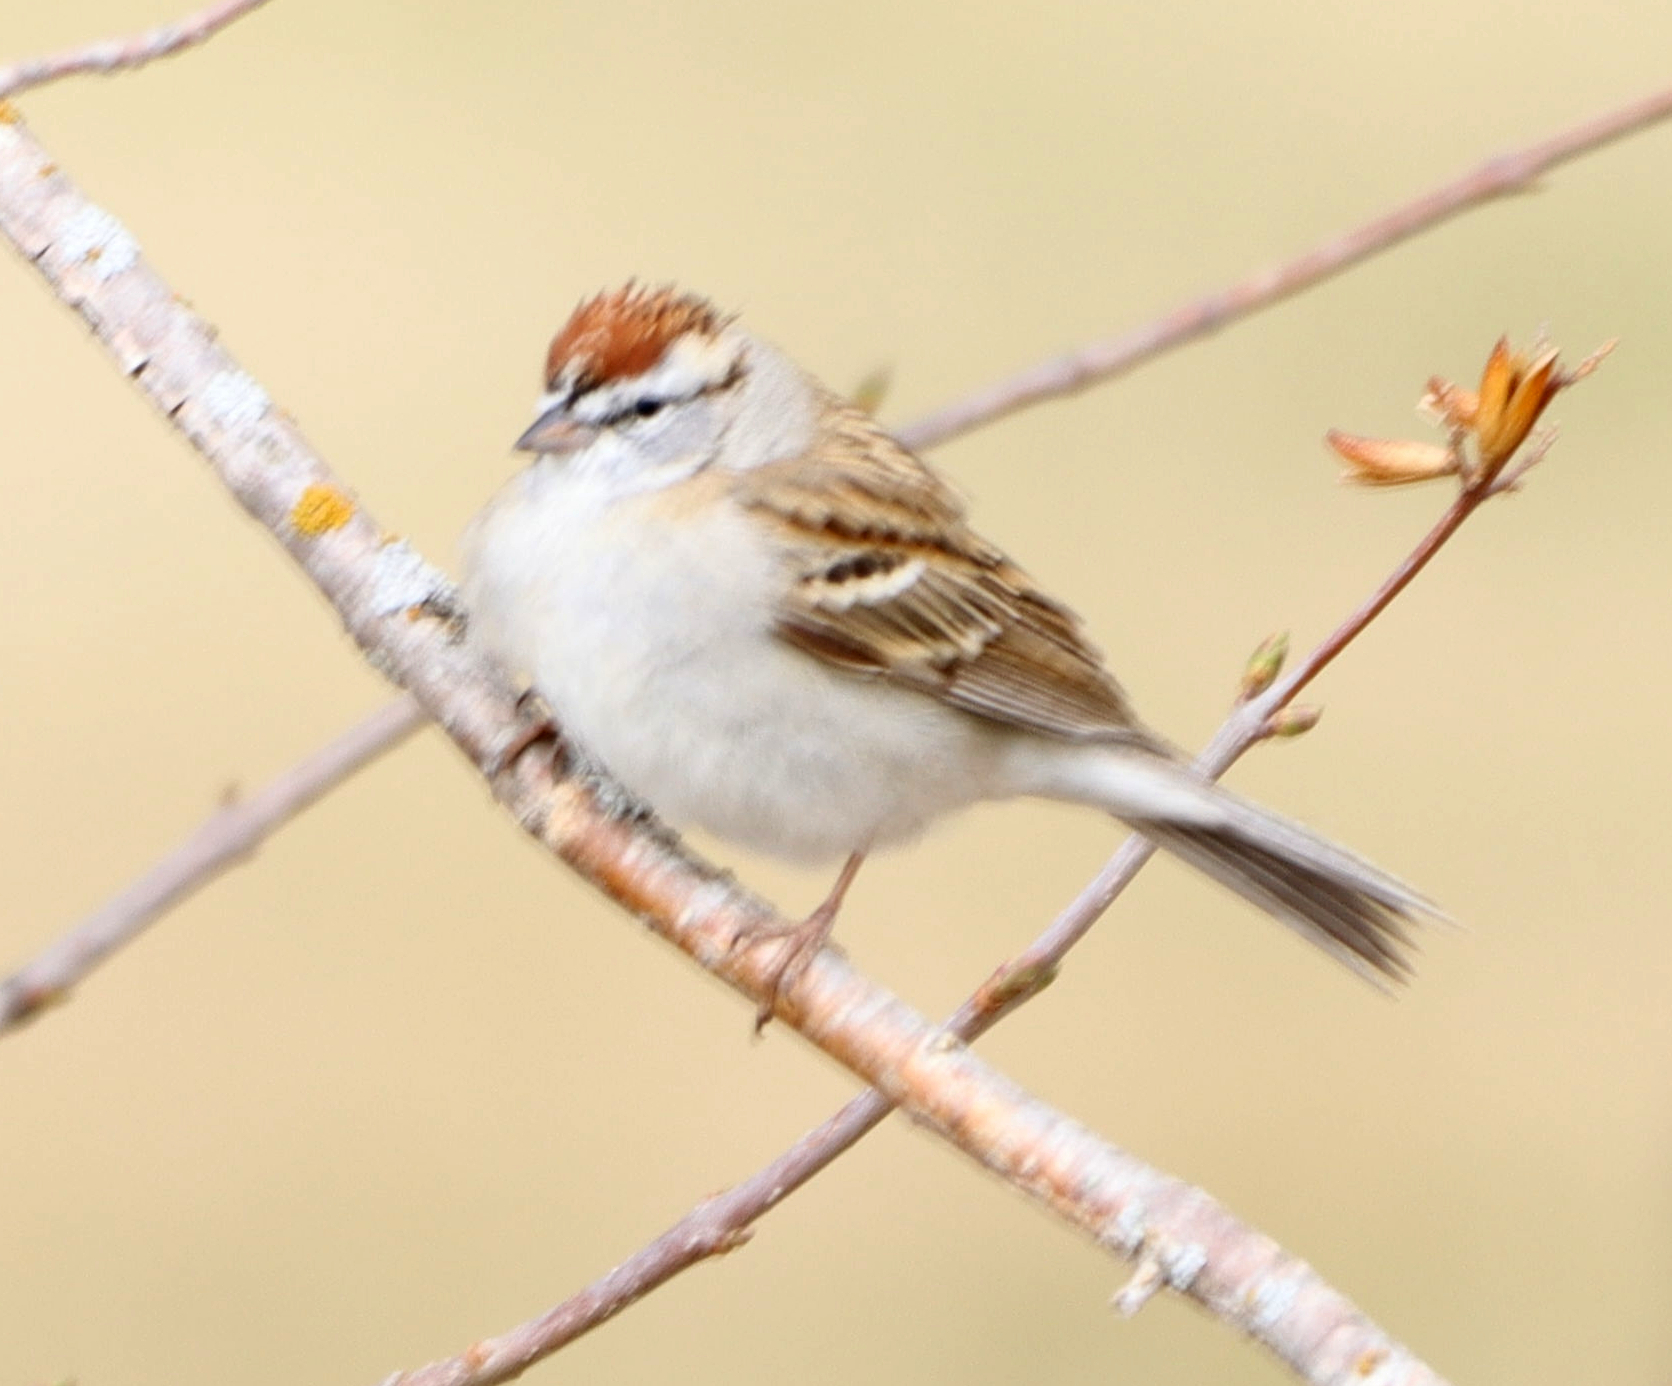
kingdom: Animalia
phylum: Chordata
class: Aves
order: Passeriformes
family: Passerellidae
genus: Spizella
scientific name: Spizella passerina
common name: Chipping sparrow
